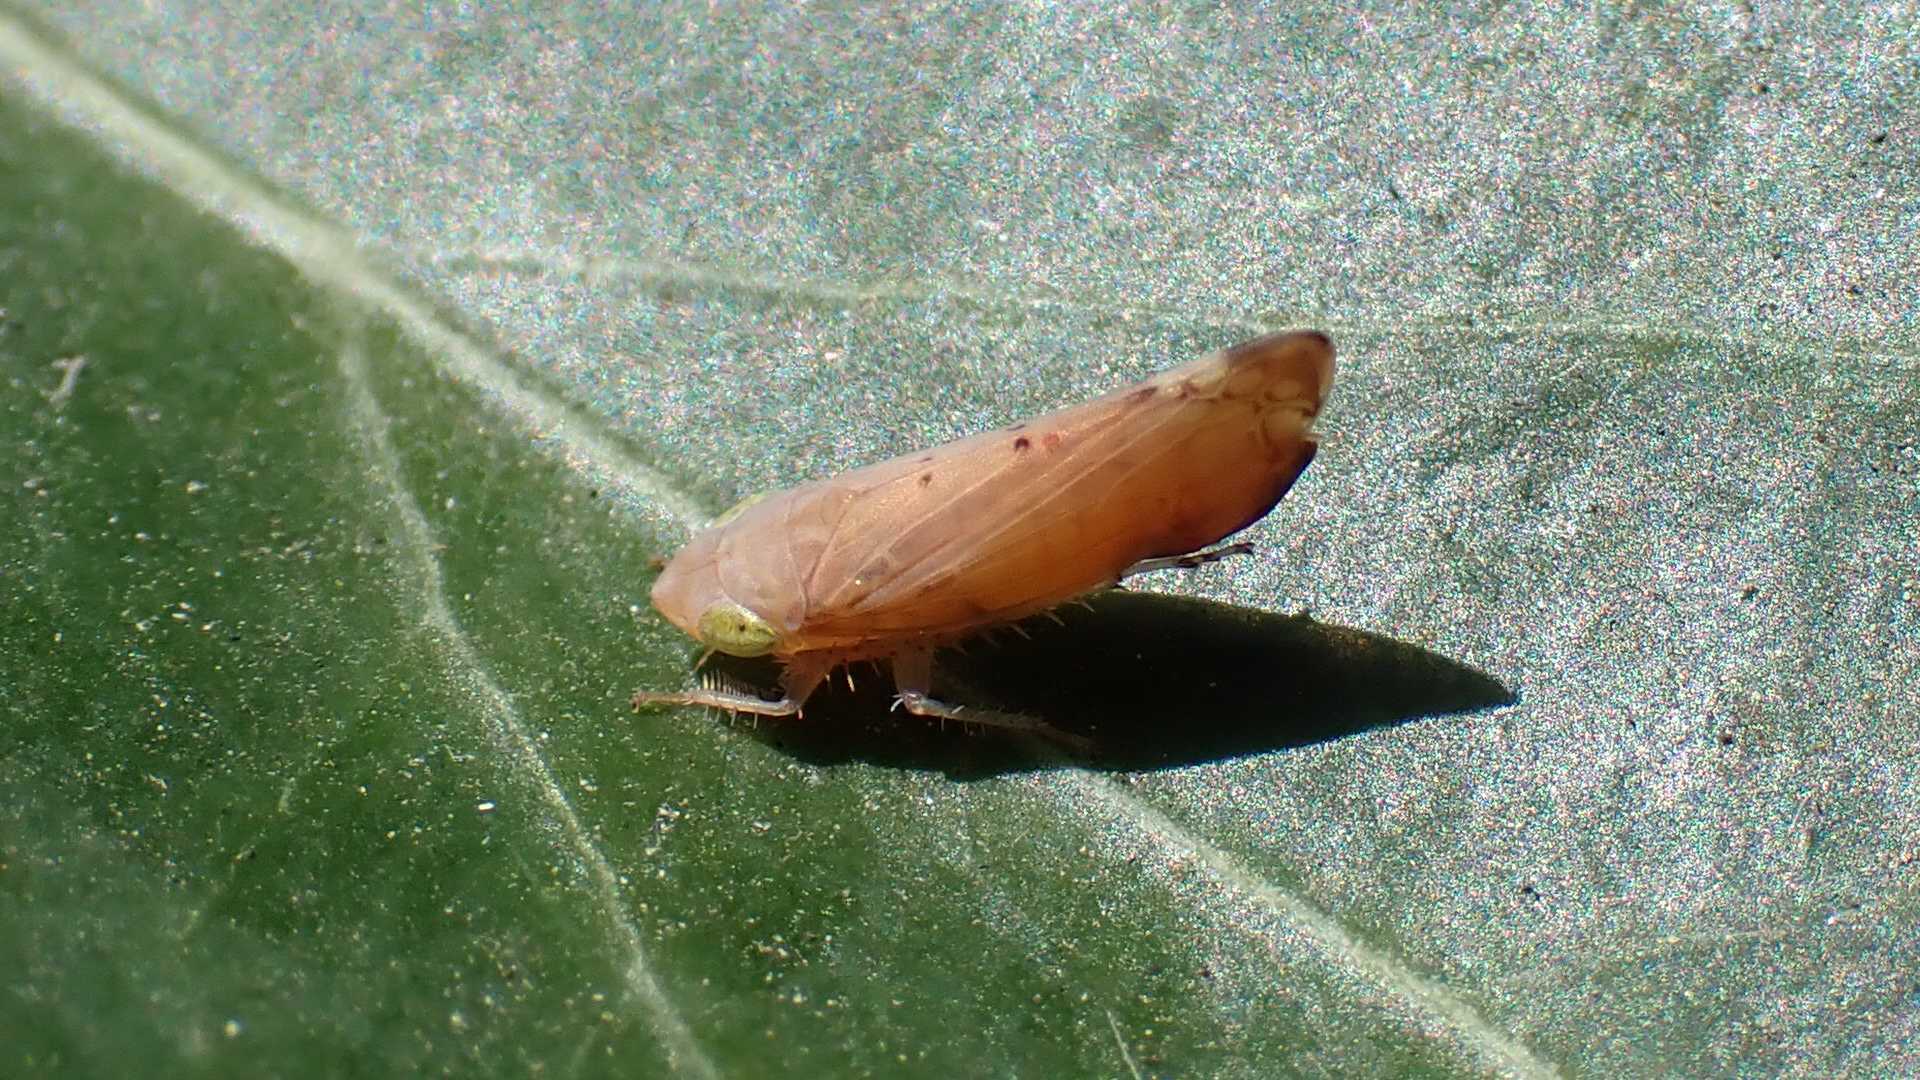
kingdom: Animalia
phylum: Arthropoda
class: Insecta
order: Hemiptera
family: Cicadellidae
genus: Synophropsis
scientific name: Synophropsis lauri
